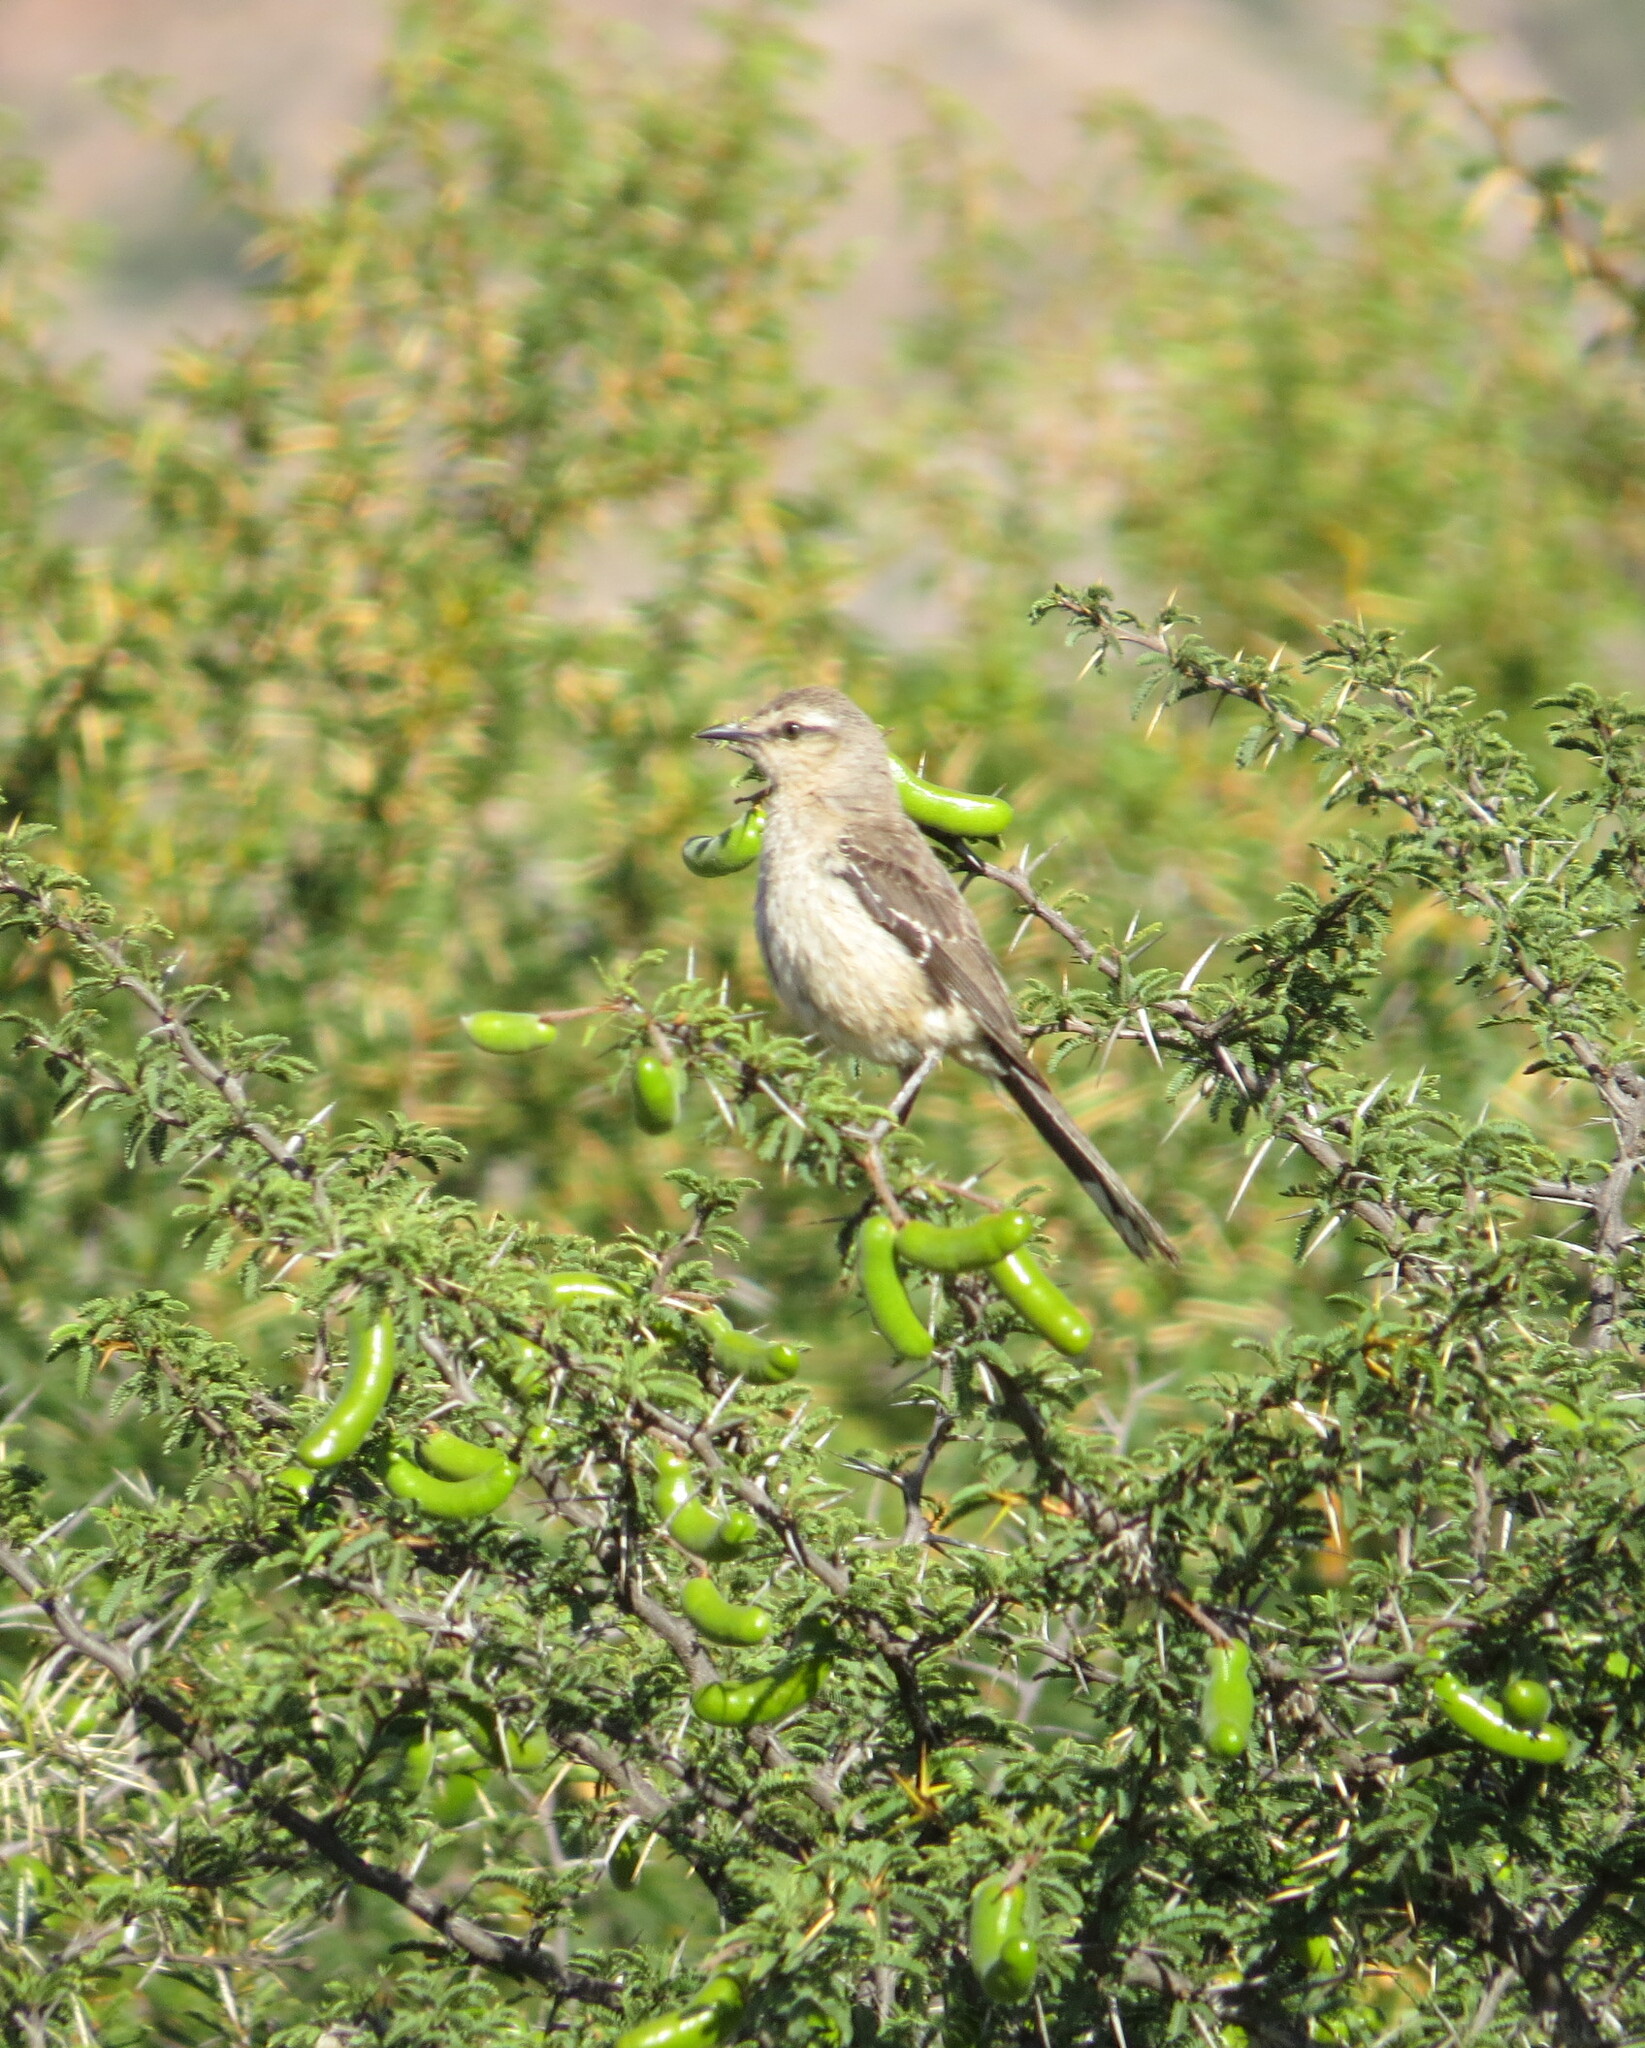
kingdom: Animalia
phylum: Chordata
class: Aves
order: Passeriformes
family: Mimidae
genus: Mimus
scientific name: Mimus patagonicus
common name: Patagonian mockingbird
